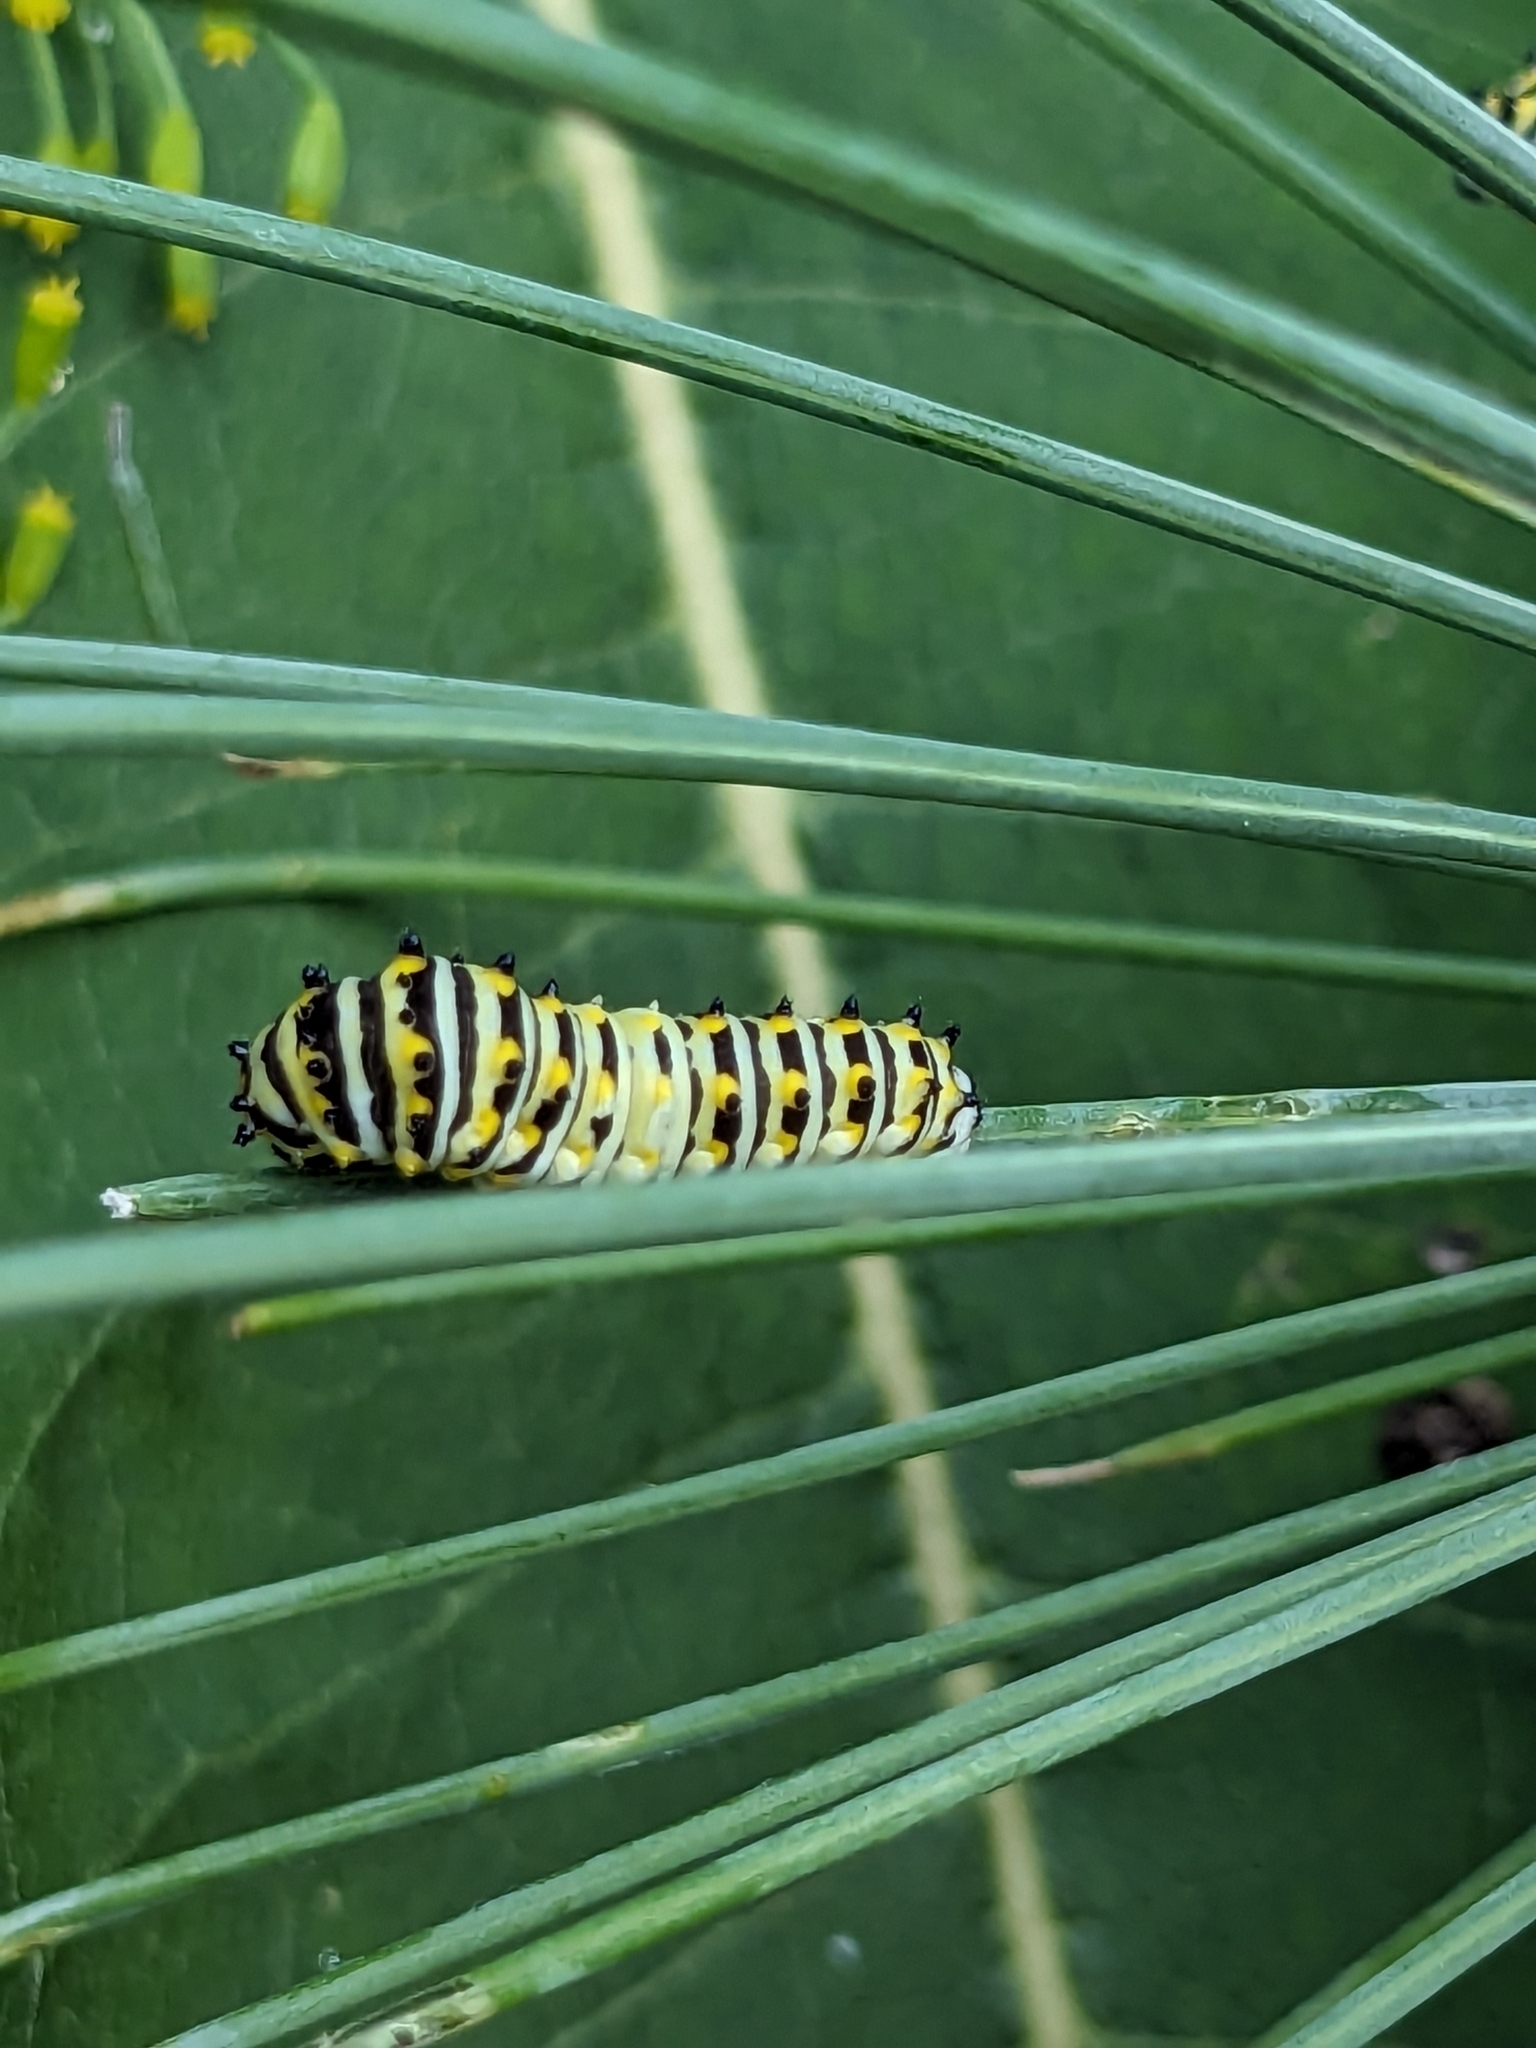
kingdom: Animalia
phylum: Arthropoda
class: Insecta
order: Lepidoptera
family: Papilionidae
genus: Papilio
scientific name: Papilio polyxenes
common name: Black swallowtail
